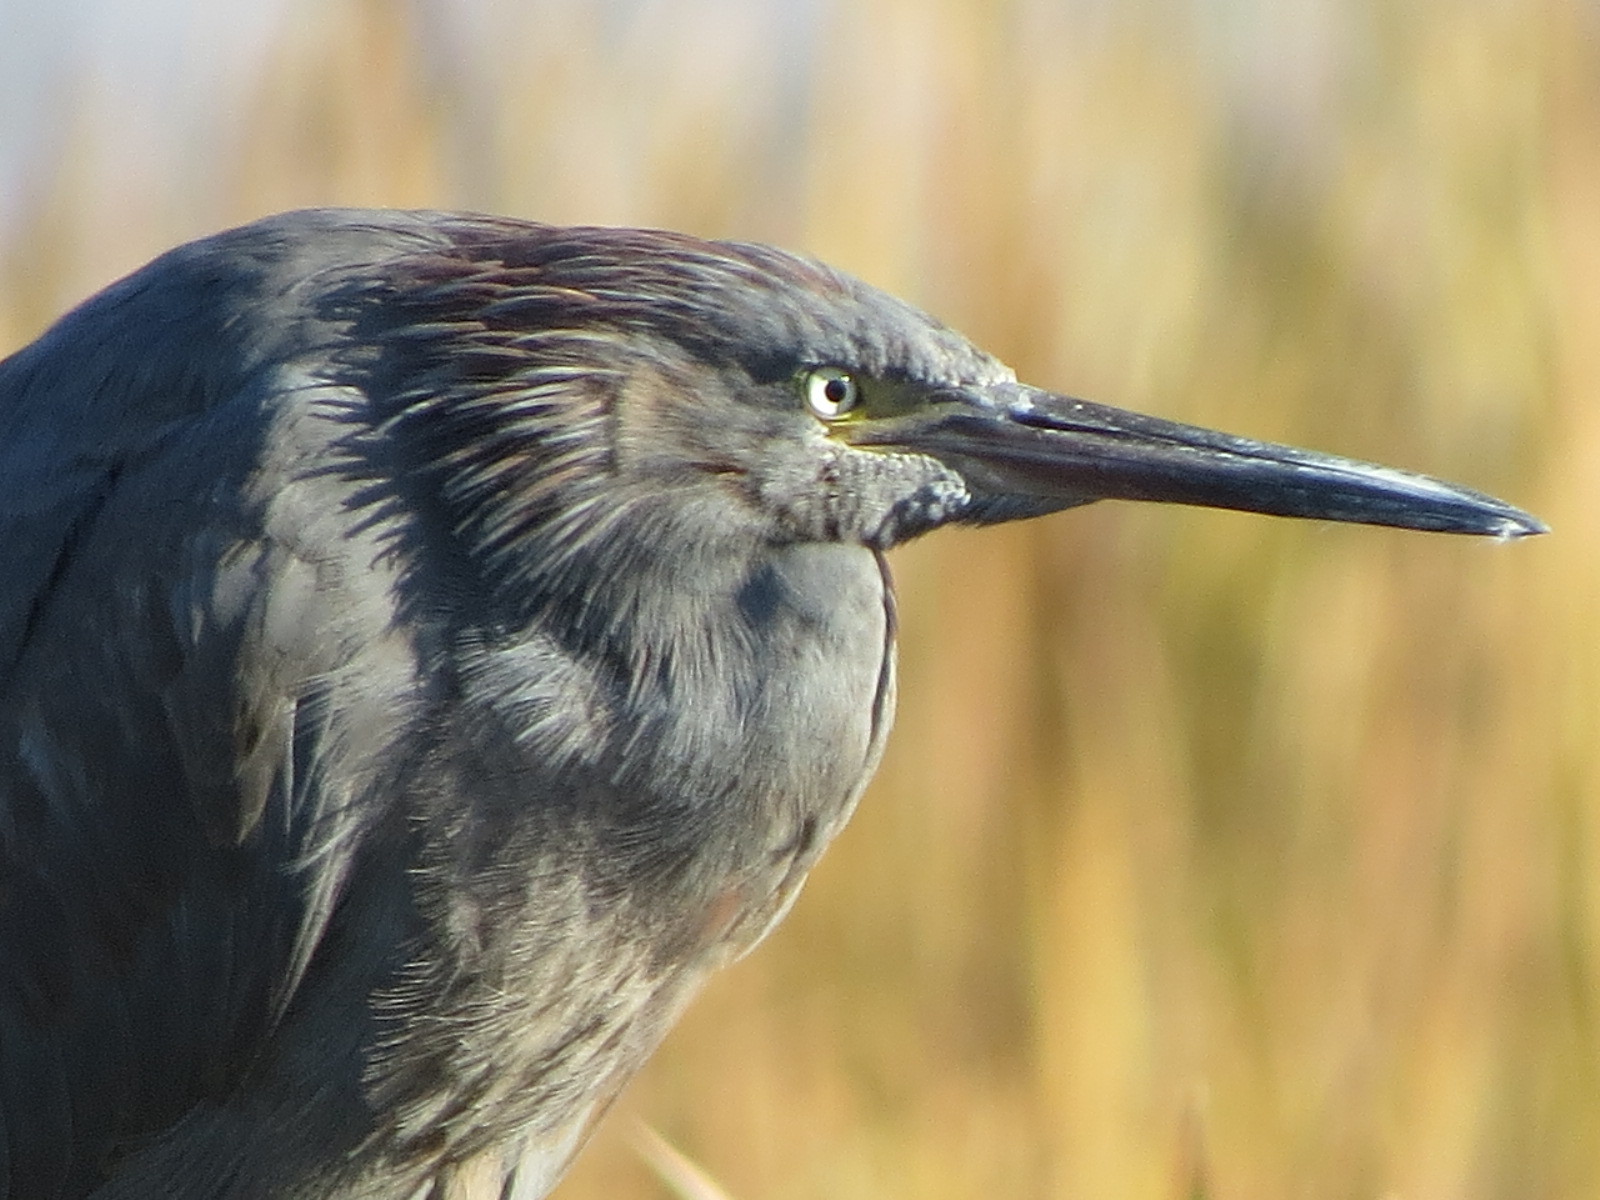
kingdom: Animalia
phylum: Chordata
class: Aves
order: Pelecaniformes
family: Ardeidae
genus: Egretta
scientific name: Egretta rufescens
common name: Reddish egret
